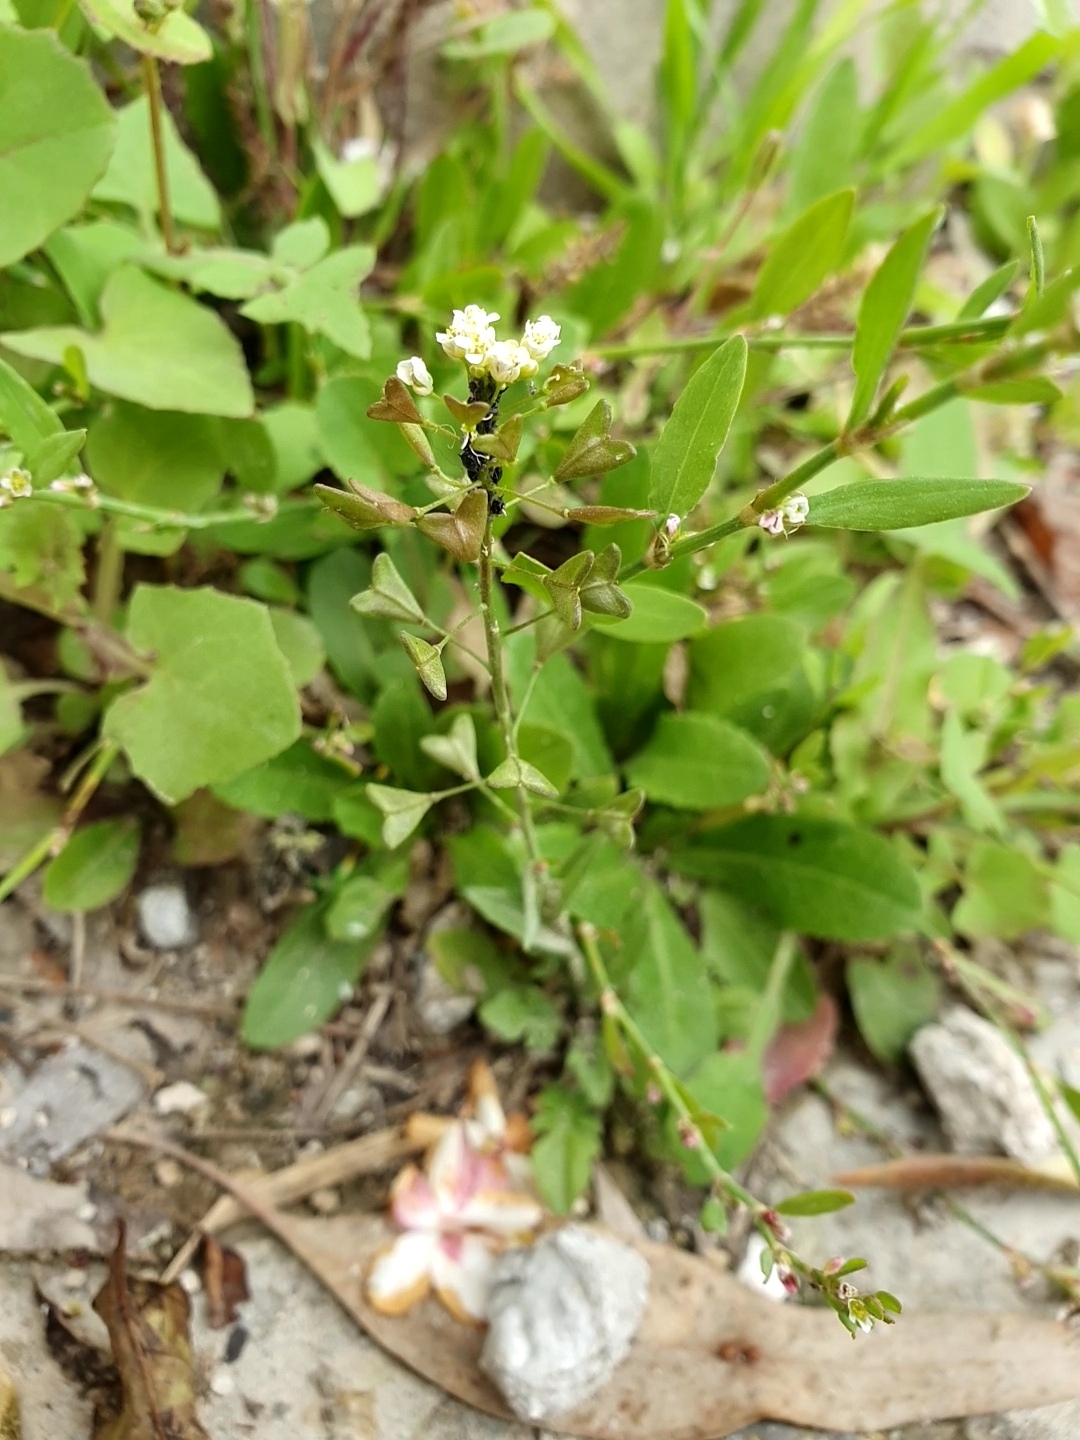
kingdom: Plantae
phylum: Tracheophyta
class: Magnoliopsida
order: Brassicales
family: Brassicaceae
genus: Capsella
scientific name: Capsella bursa-pastoris
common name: Shepherd's purse
